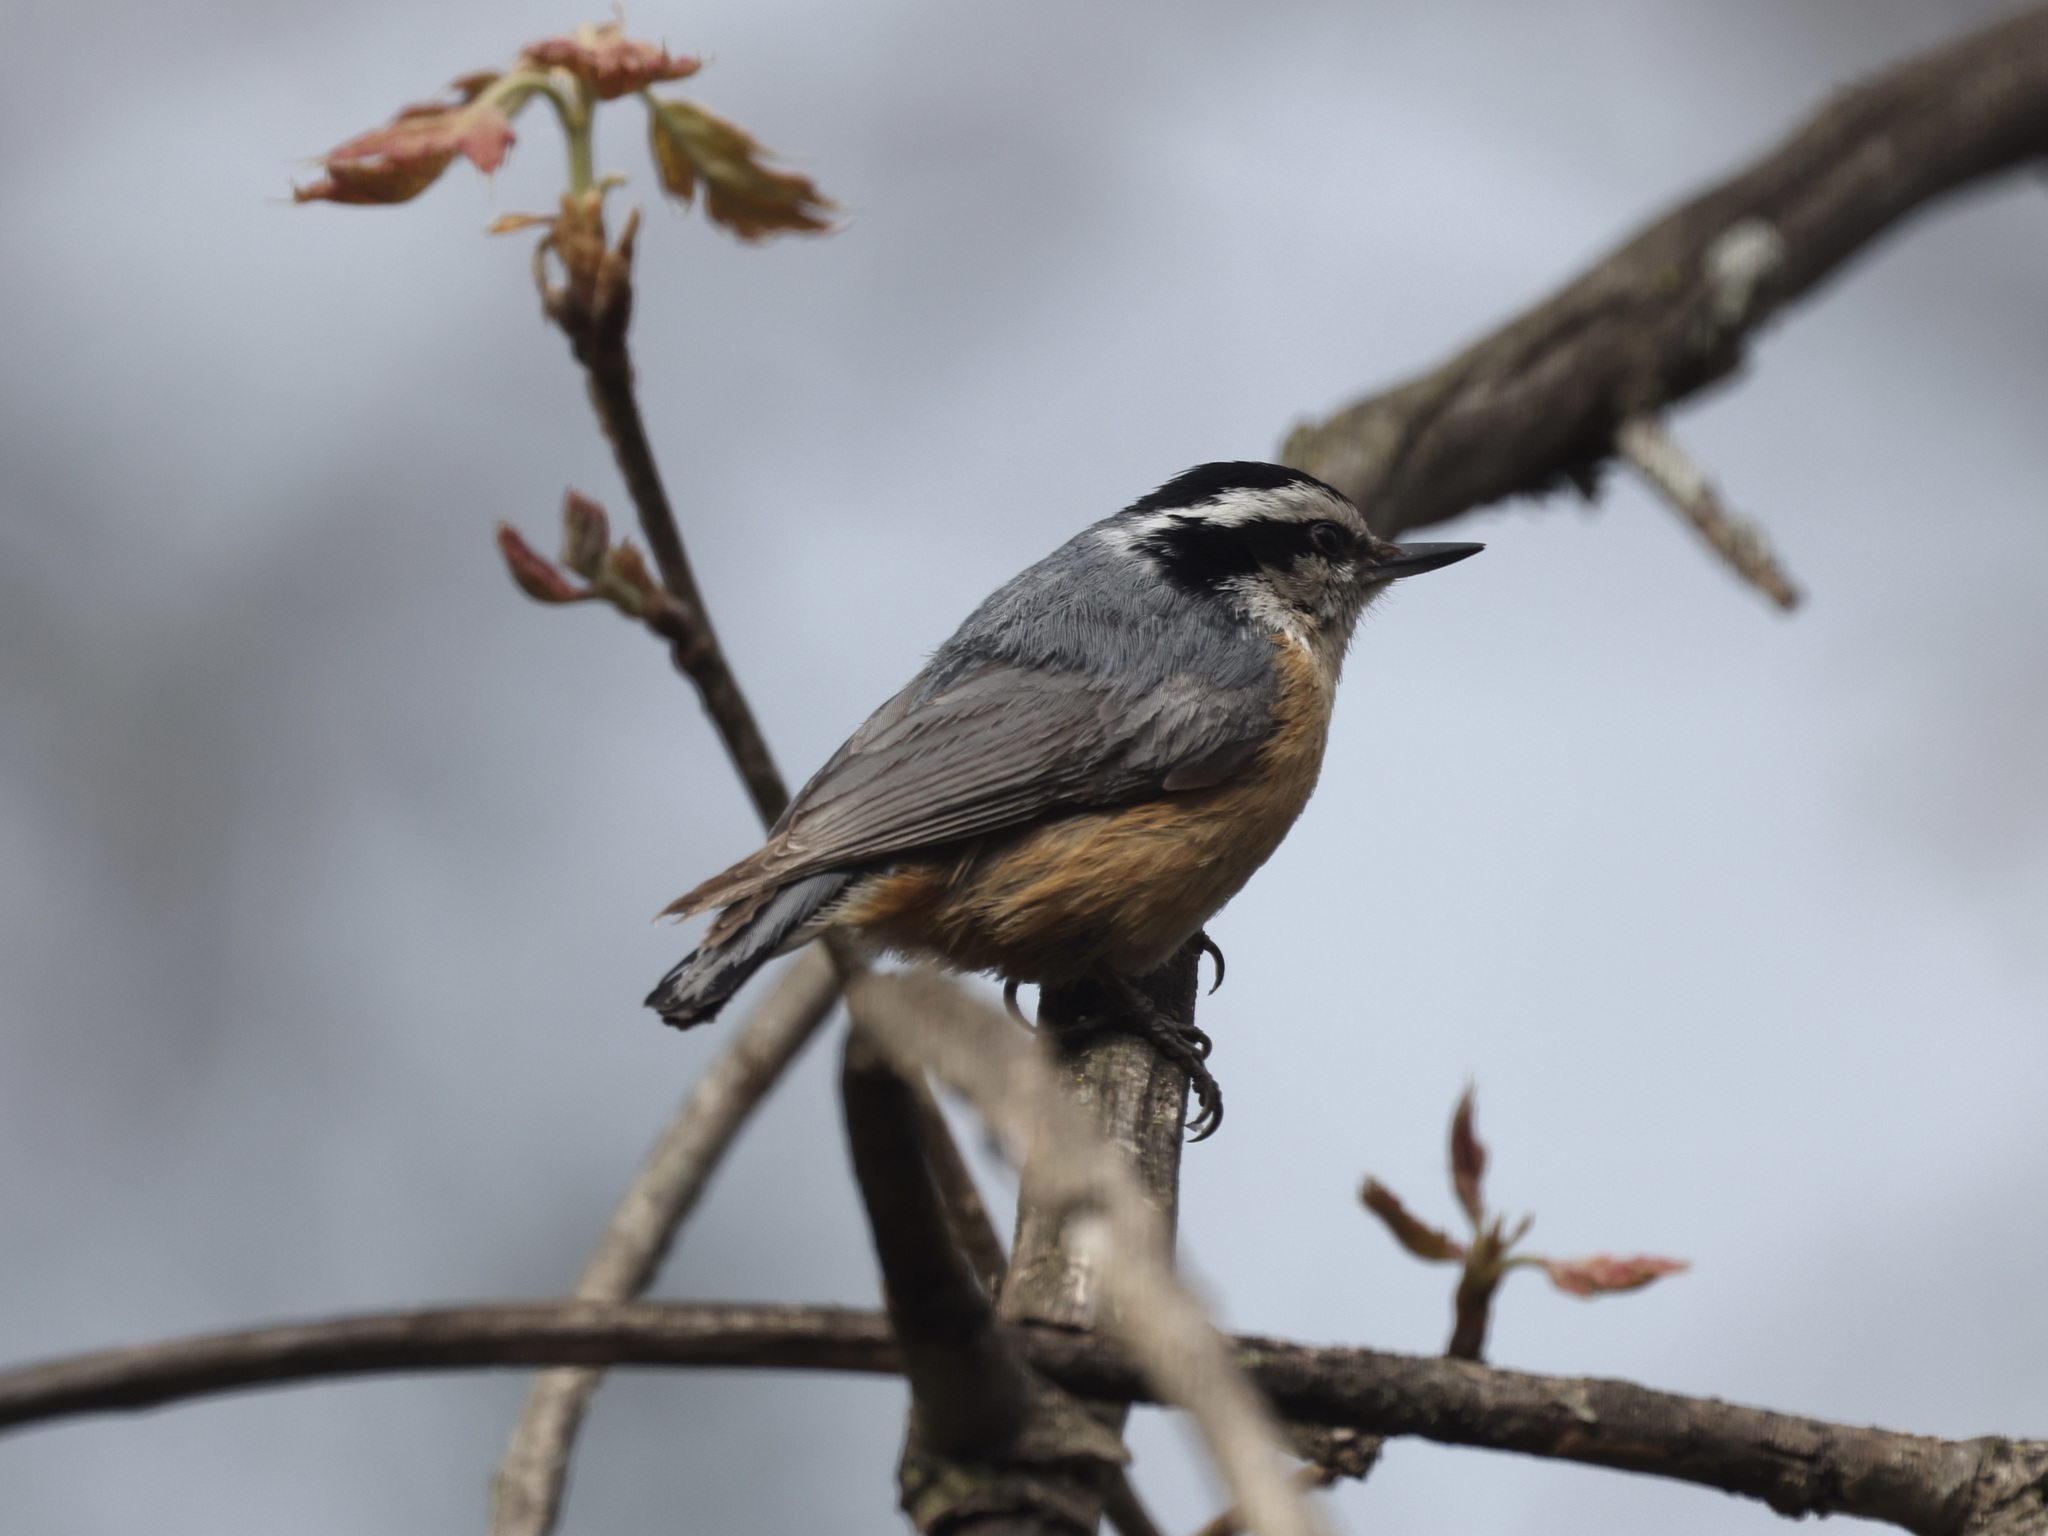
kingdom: Animalia
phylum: Chordata
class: Aves
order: Passeriformes
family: Sittidae
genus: Sitta
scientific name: Sitta canadensis
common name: Red-breasted nuthatch
